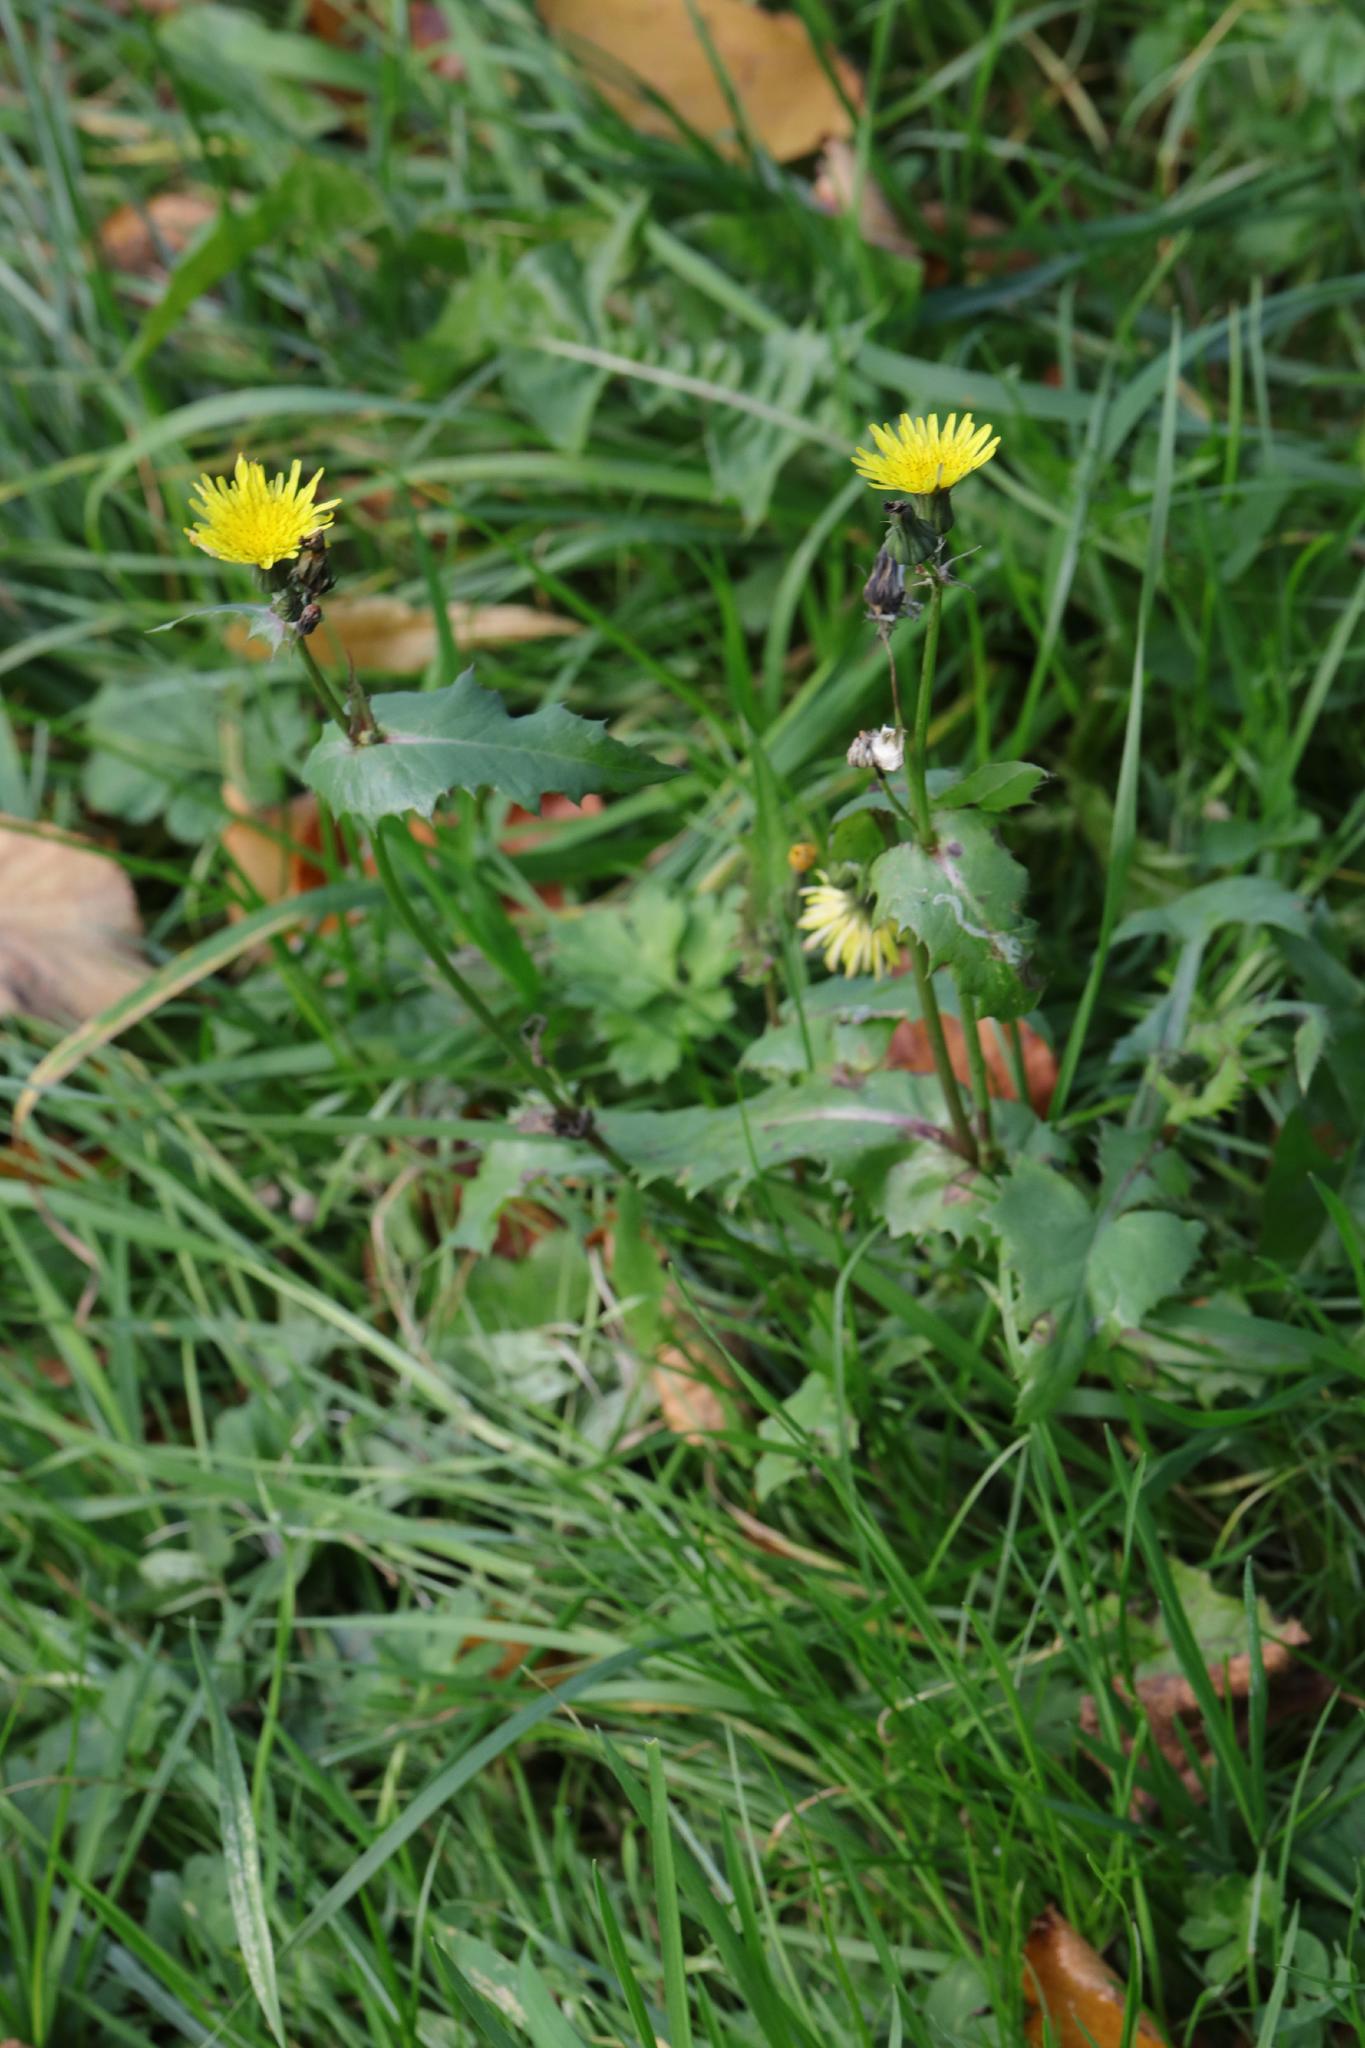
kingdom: Plantae
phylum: Tracheophyta
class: Magnoliopsida
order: Asterales
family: Asteraceae
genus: Sonchus
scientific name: Sonchus oleraceus
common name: Common sowthistle
